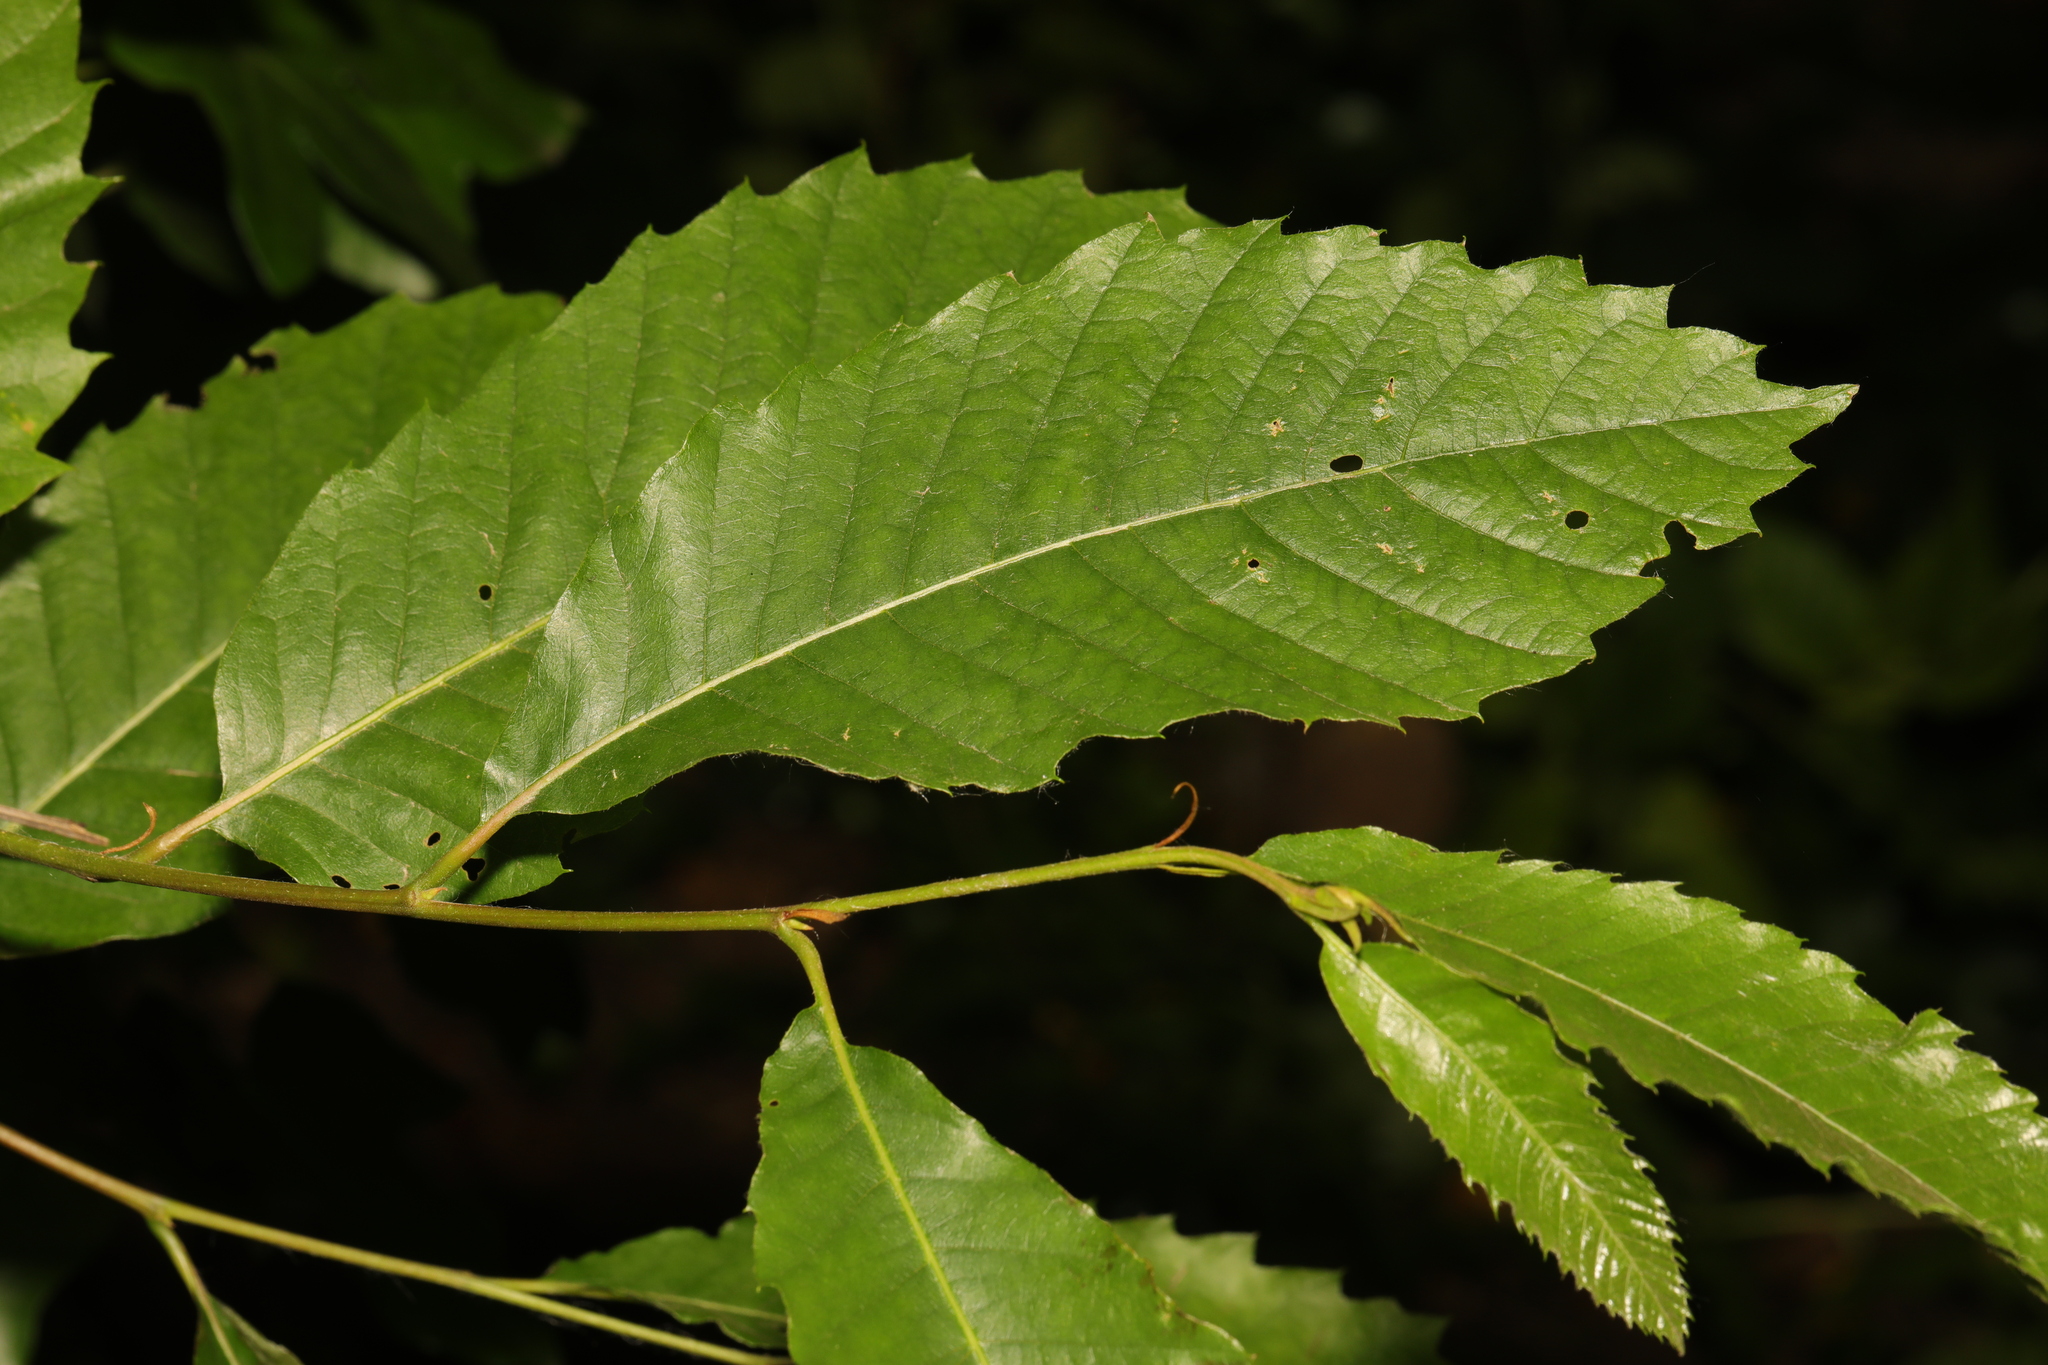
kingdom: Plantae
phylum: Tracheophyta
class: Magnoliopsida
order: Fagales
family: Fagaceae
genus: Castanea
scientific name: Castanea sativa
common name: Sweet chestnut
